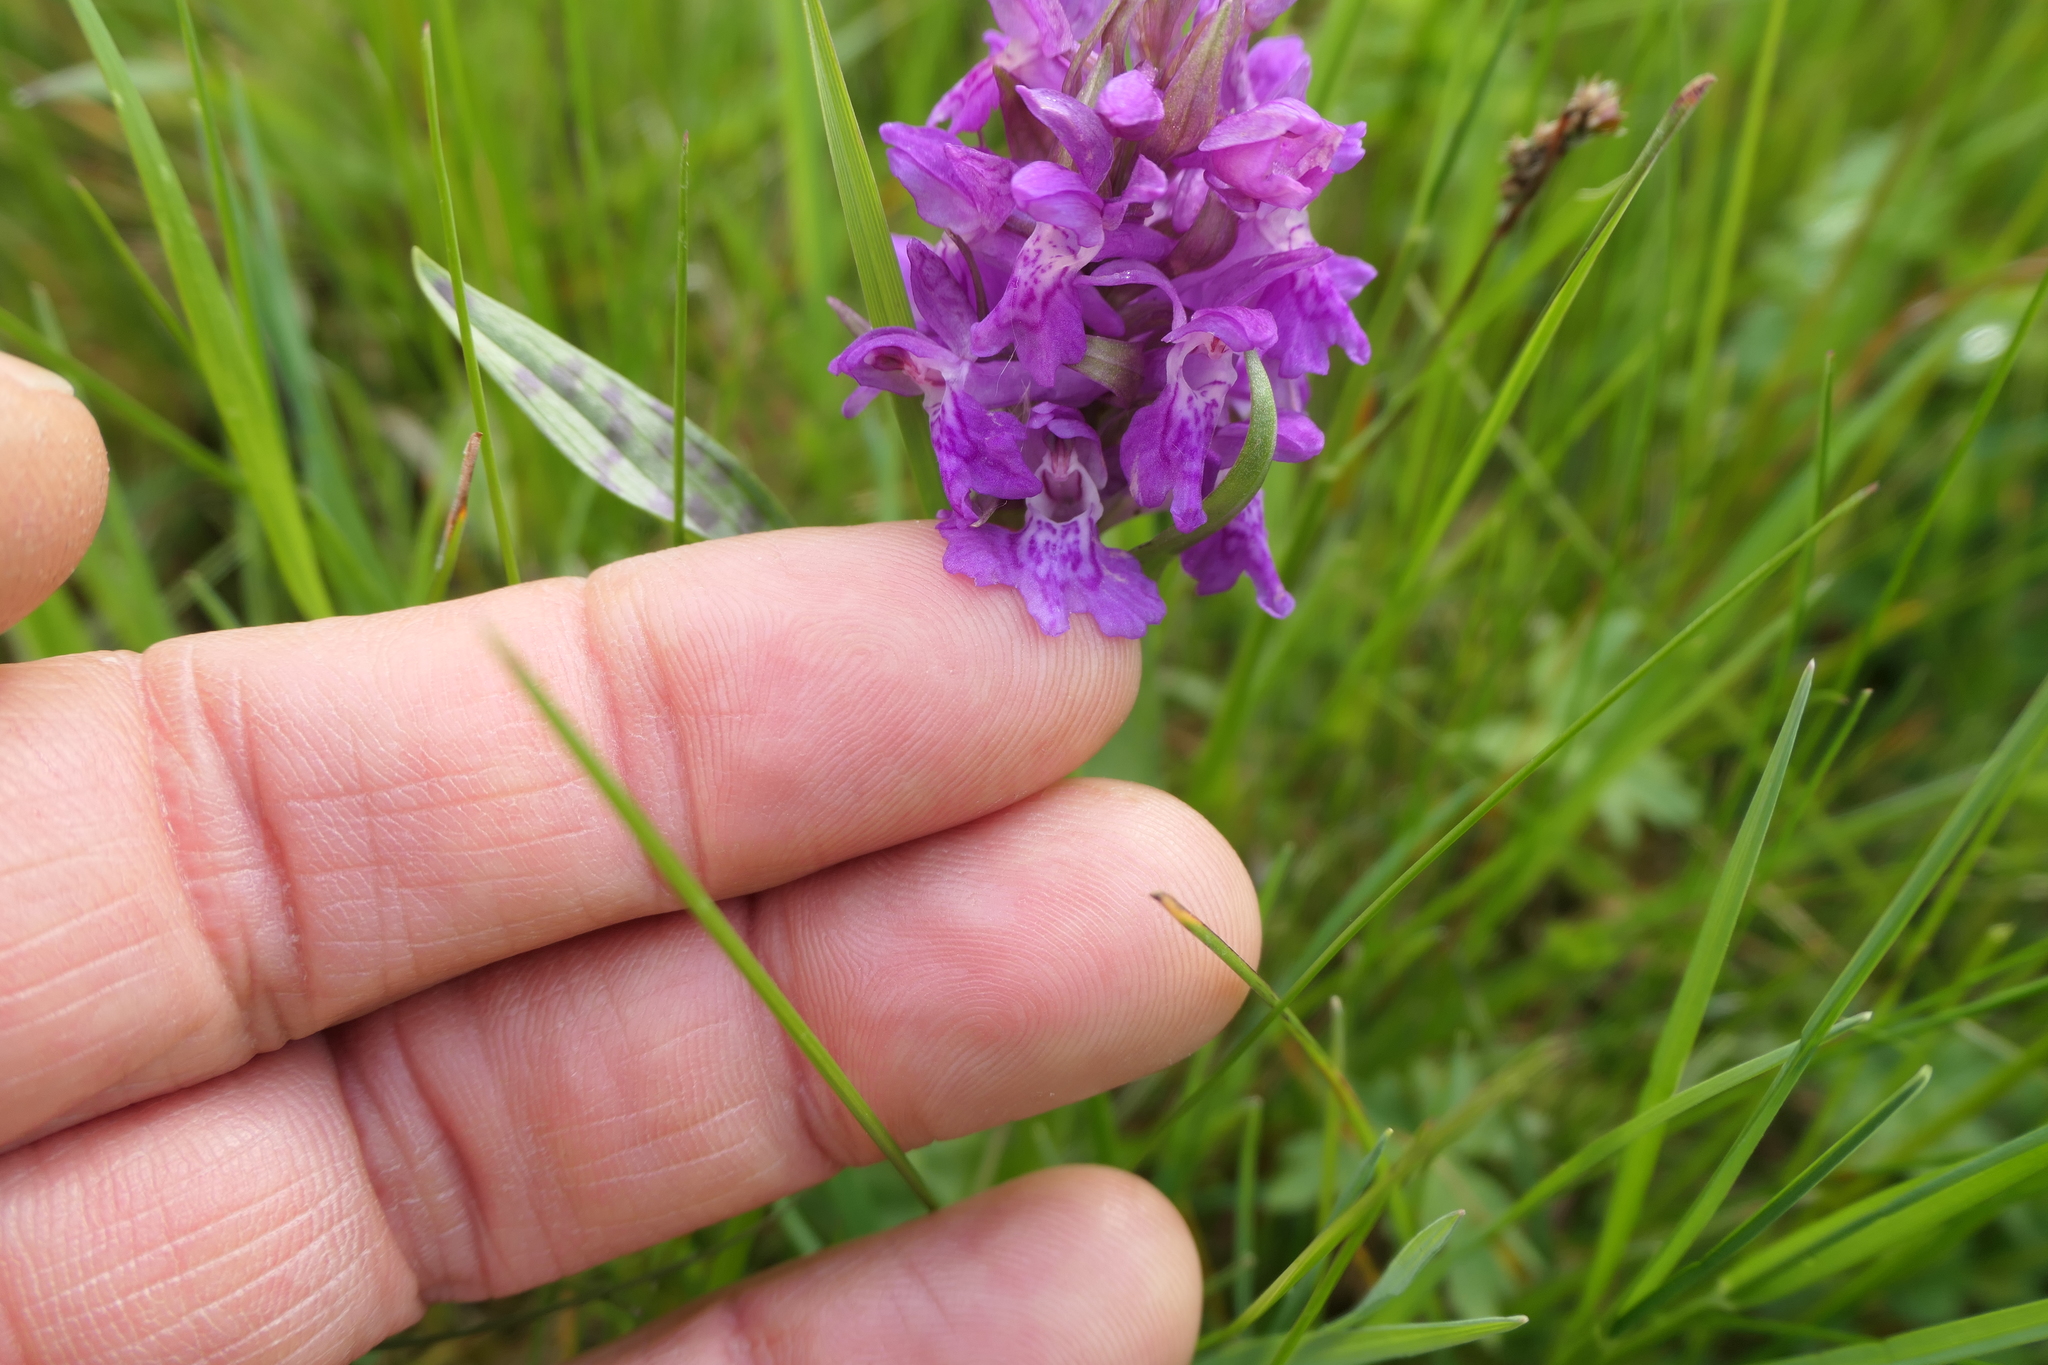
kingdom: Plantae
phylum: Tracheophyta
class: Liliopsida
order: Asparagales
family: Orchidaceae
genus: Dactylorhiza
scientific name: Dactylorhiza majalis
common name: Marsh orchid
